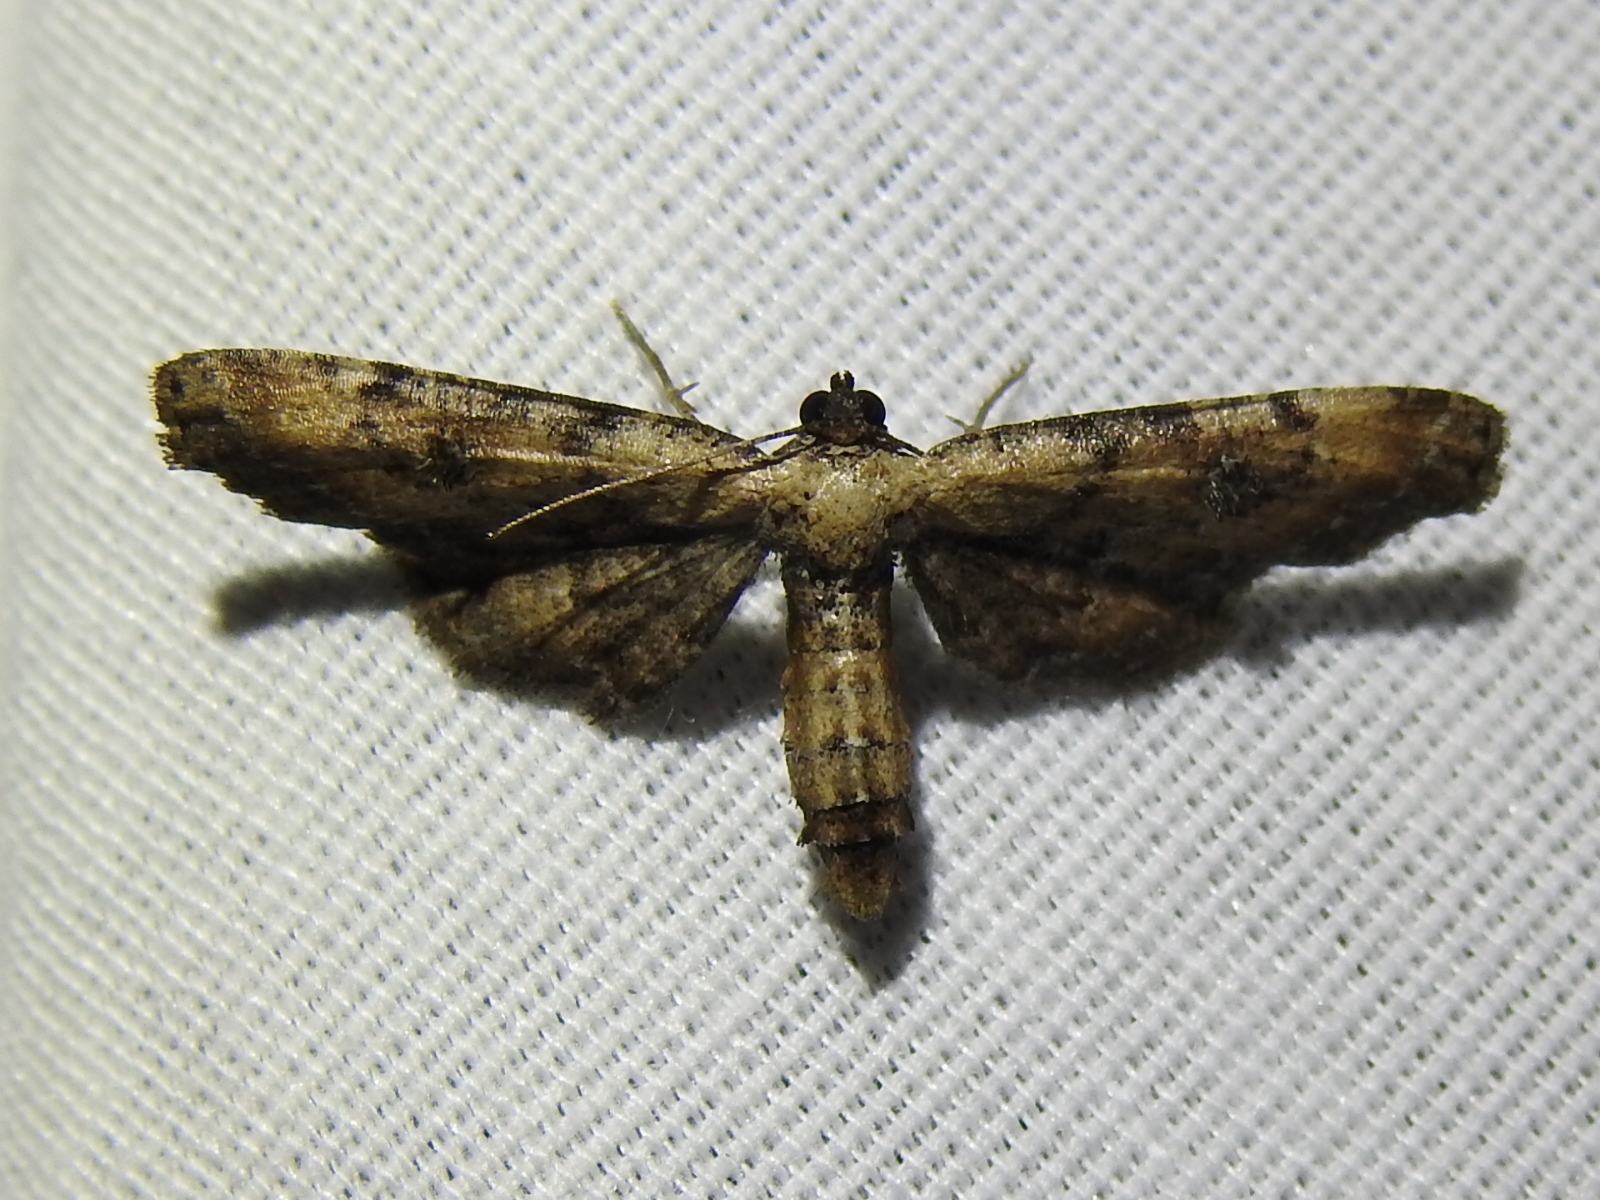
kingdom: Animalia
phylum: Arthropoda
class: Insecta
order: Lepidoptera
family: Geometridae
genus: Tornos
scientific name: Tornos scolopacinaria
